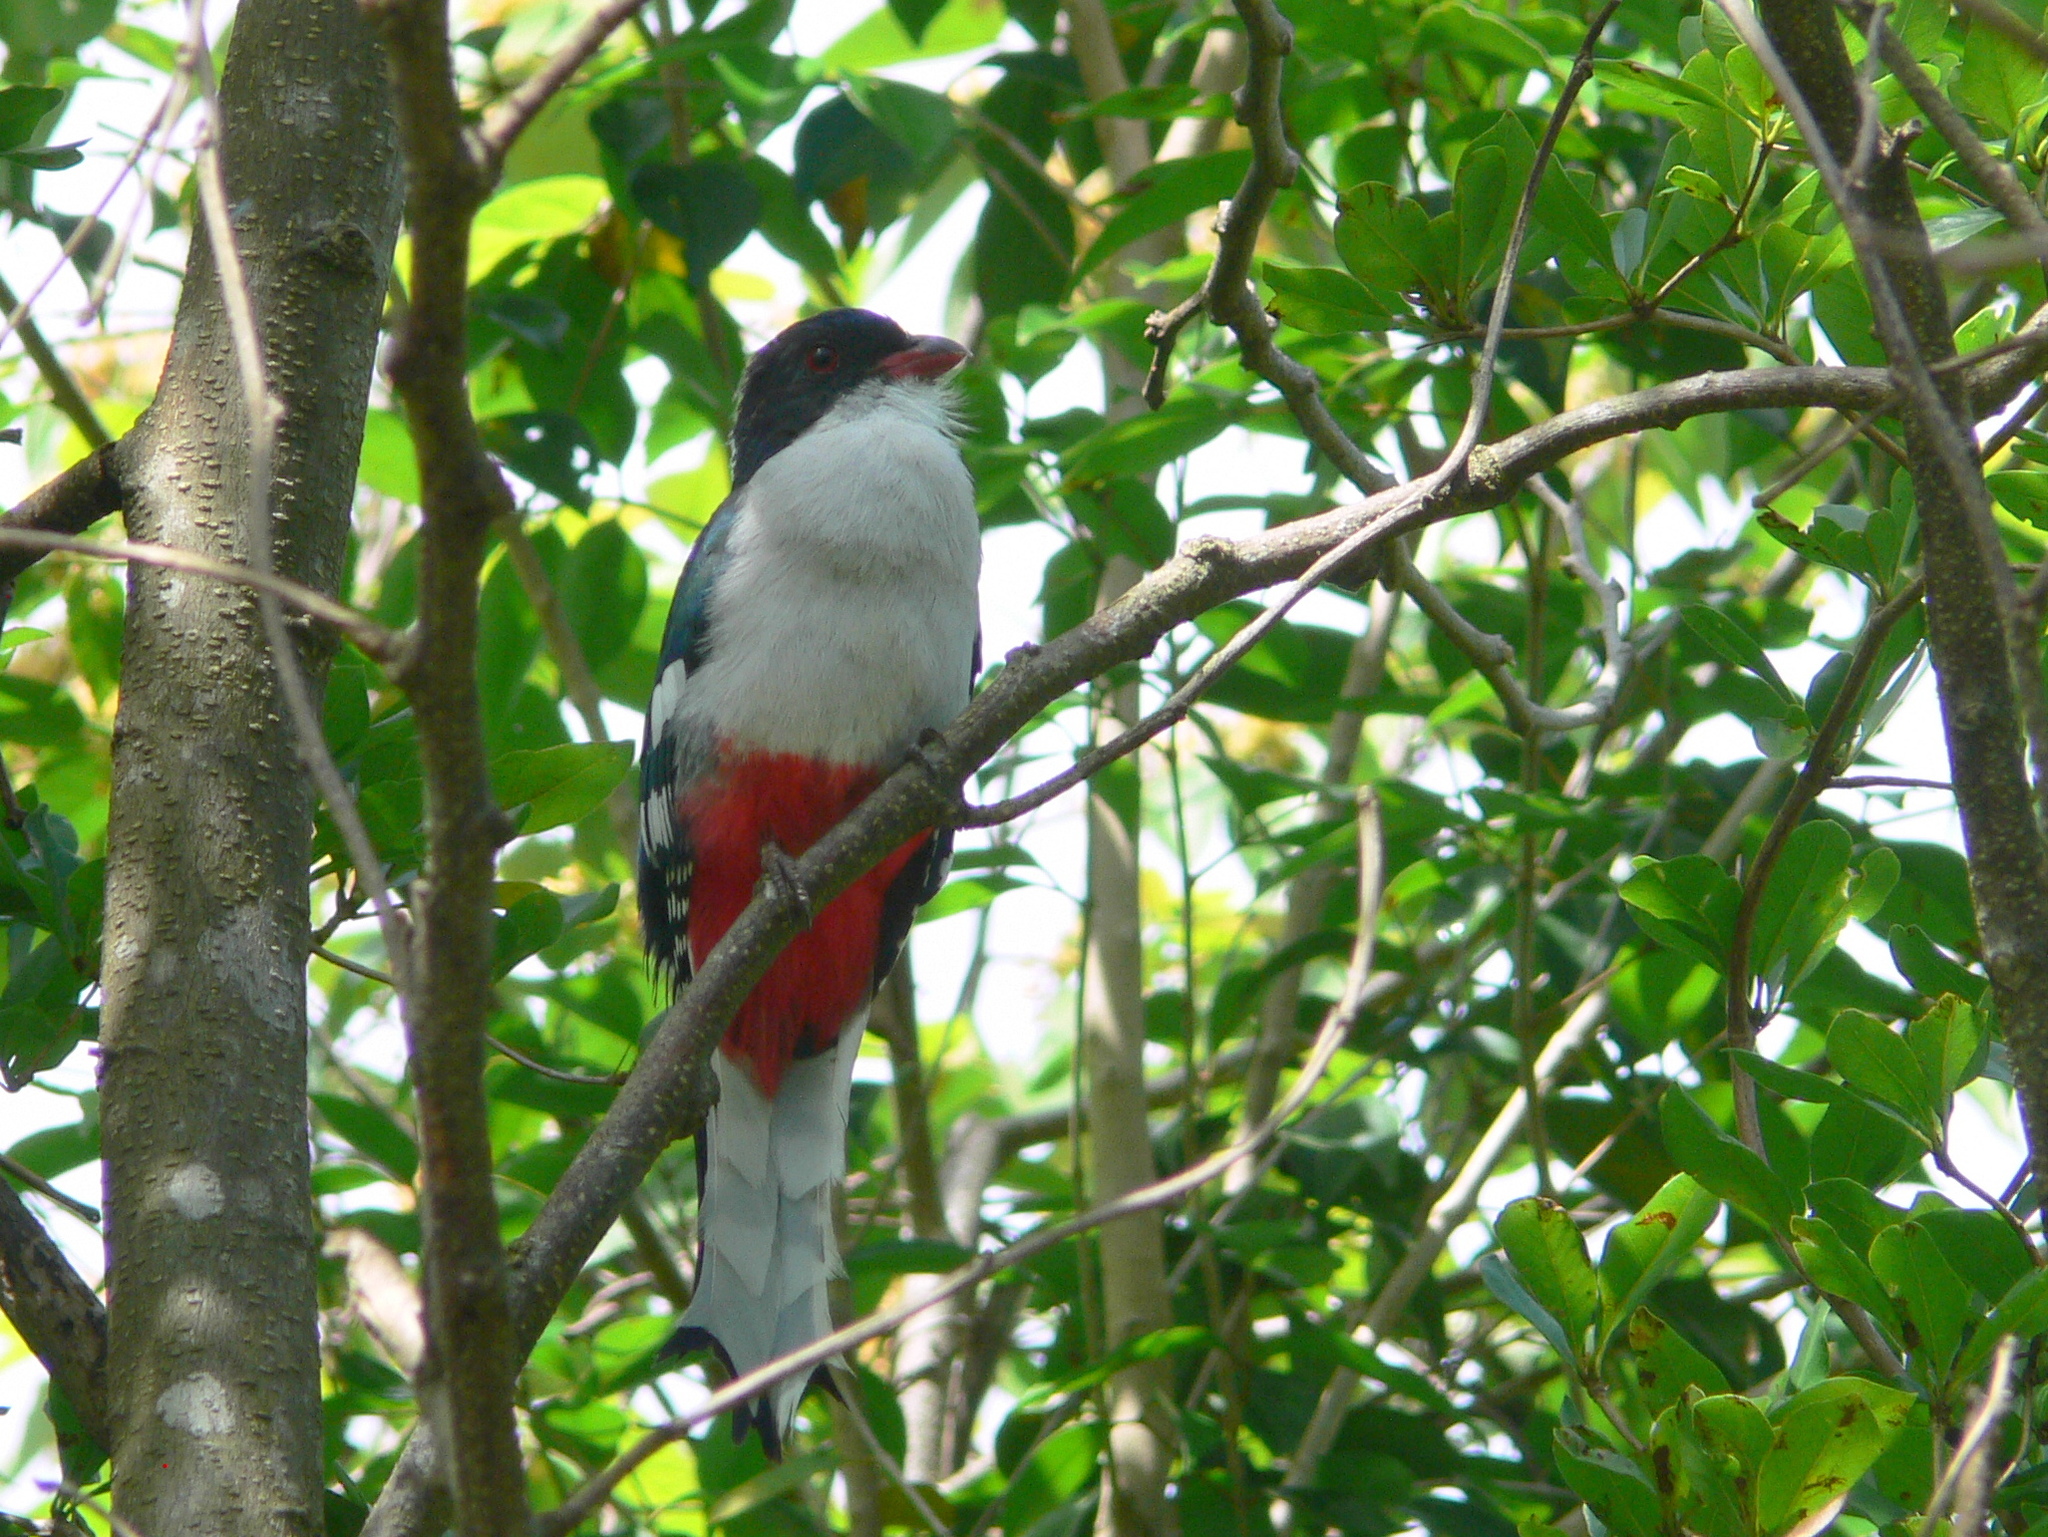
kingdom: Animalia
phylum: Chordata
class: Aves
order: Trogoniformes
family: Trogonidae
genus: Priotelus
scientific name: Priotelus temnurus
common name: Cuban trogon
